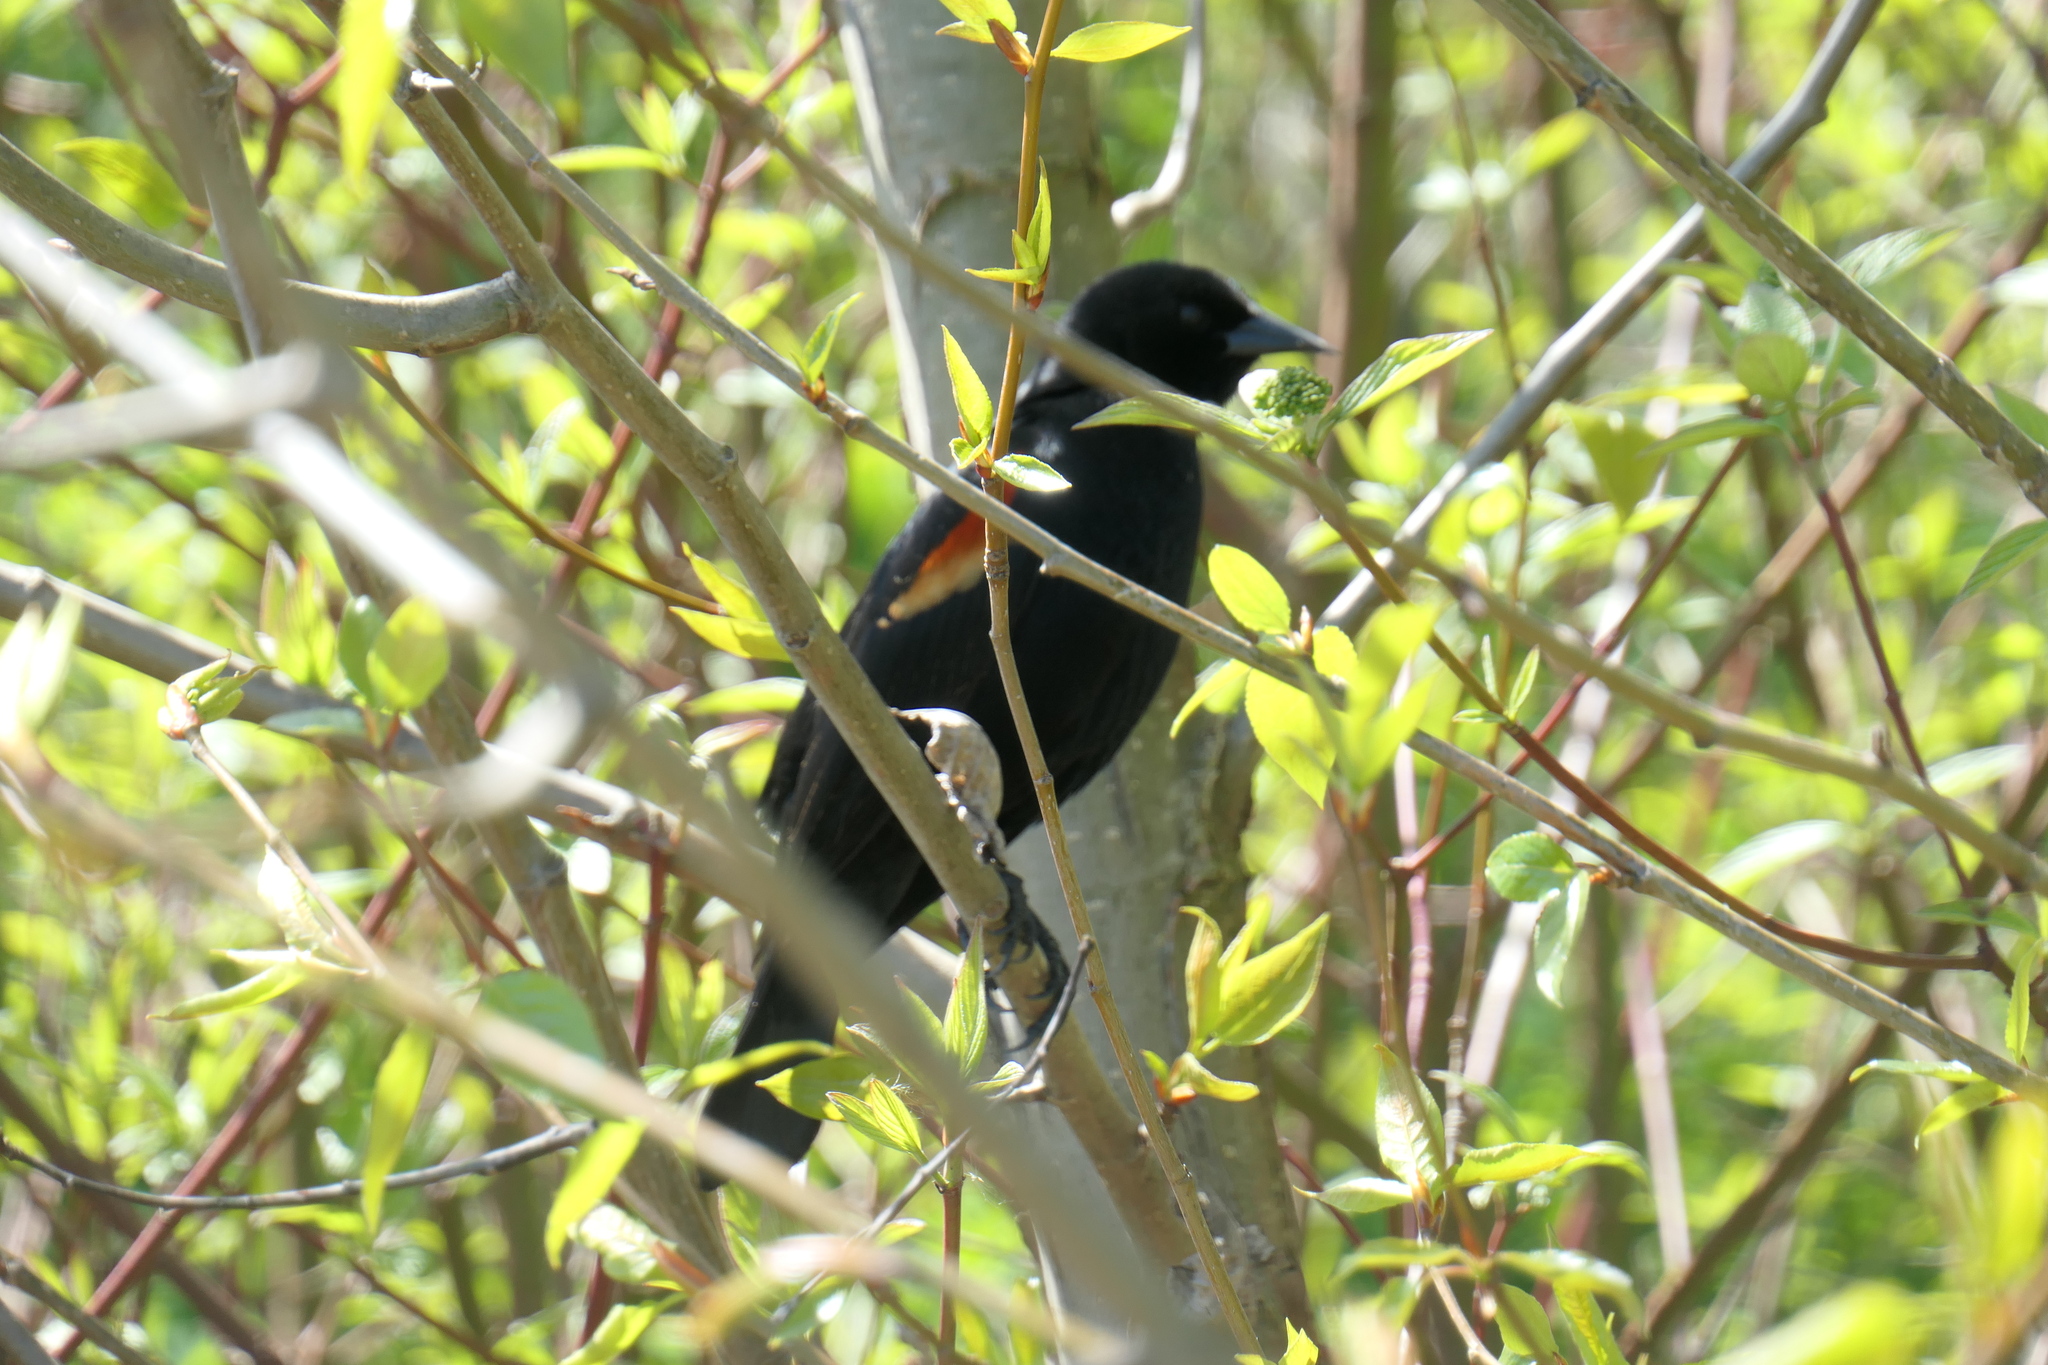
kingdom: Animalia
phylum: Chordata
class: Aves
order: Passeriformes
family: Icteridae
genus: Agelaius
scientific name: Agelaius phoeniceus
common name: Red-winged blackbird
